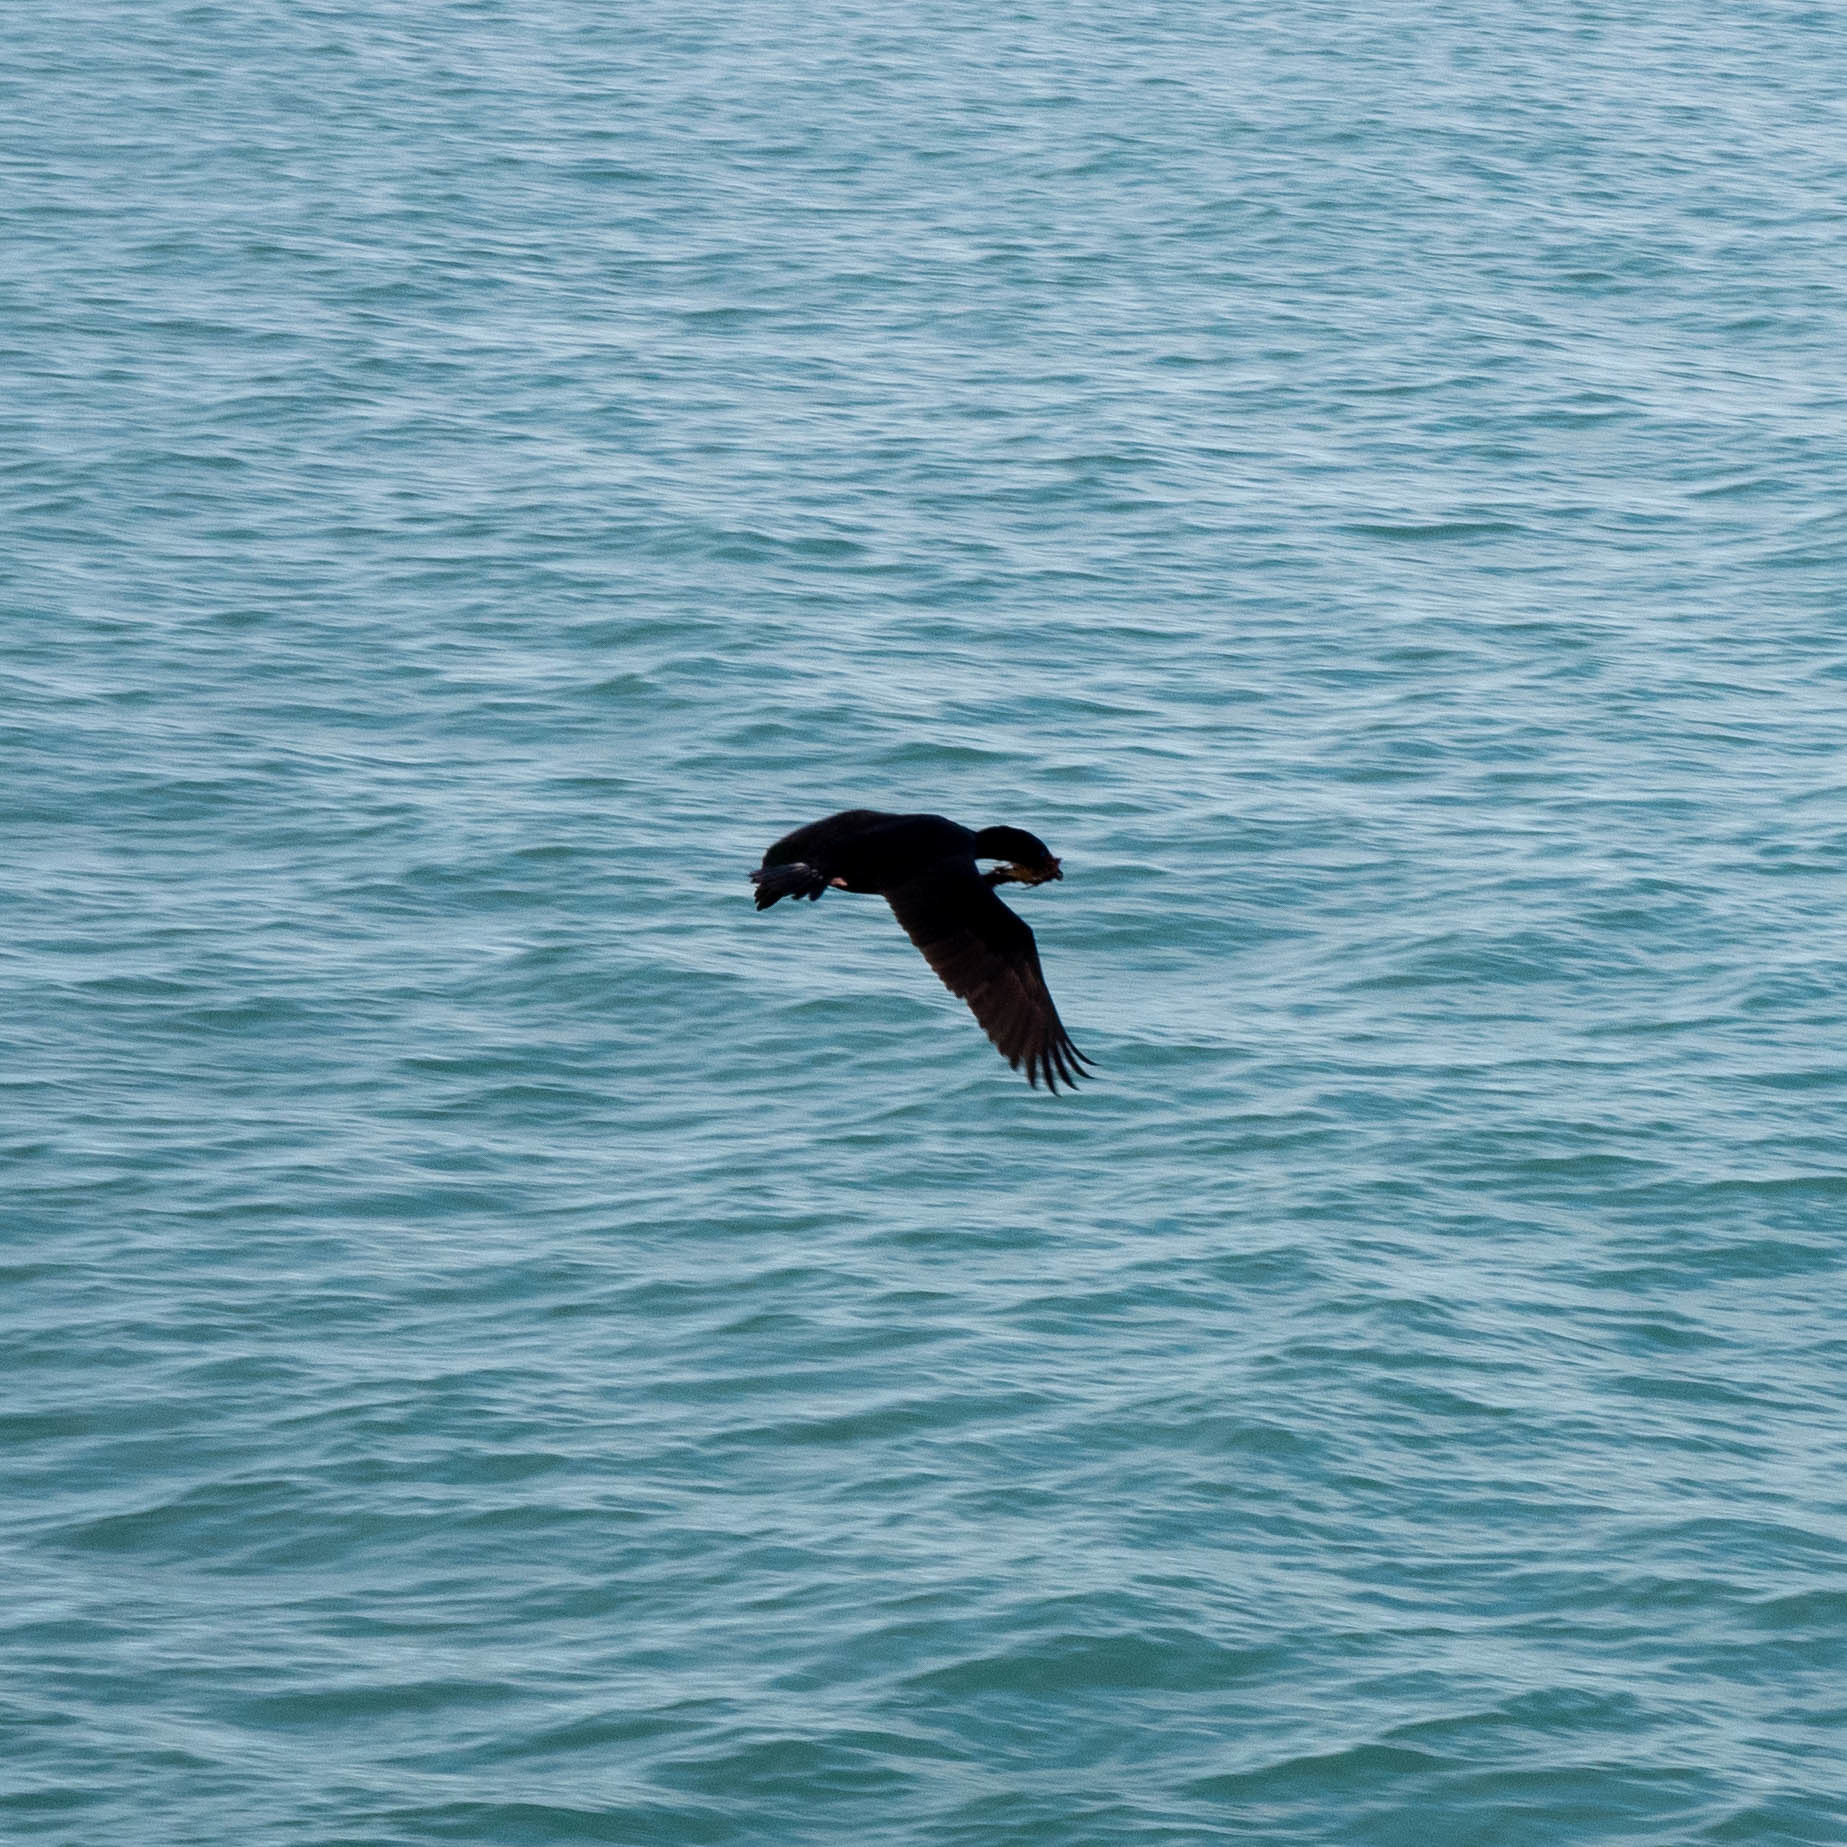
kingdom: Animalia
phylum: Chordata
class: Aves
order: Suliformes
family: Phalacrocoracidae
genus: Leucocarbo
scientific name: Leucocarbo chalconotus
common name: Stewart shag
